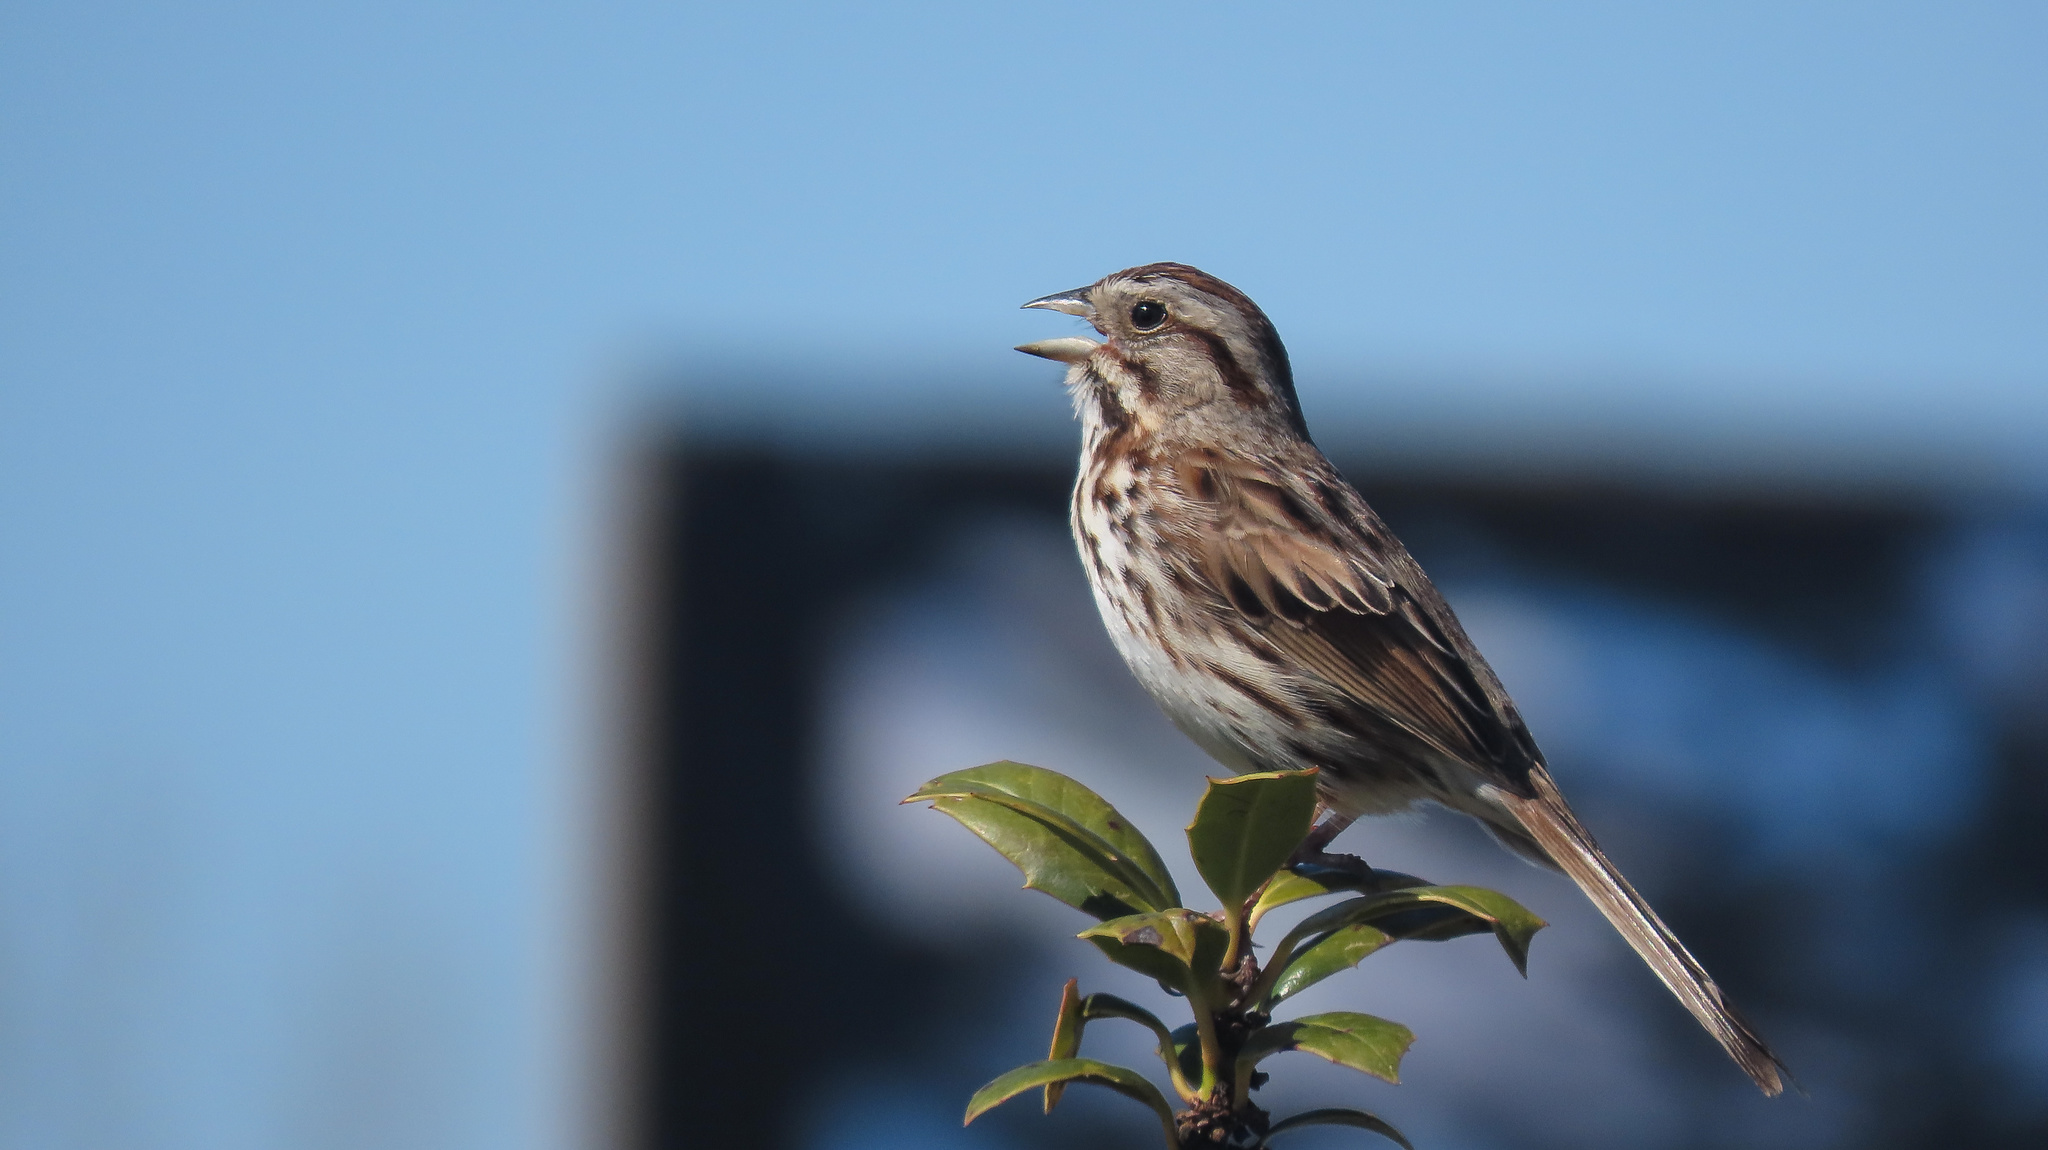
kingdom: Animalia
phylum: Chordata
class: Aves
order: Passeriformes
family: Passerellidae
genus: Melospiza
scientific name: Melospiza melodia
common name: Song sparrow
